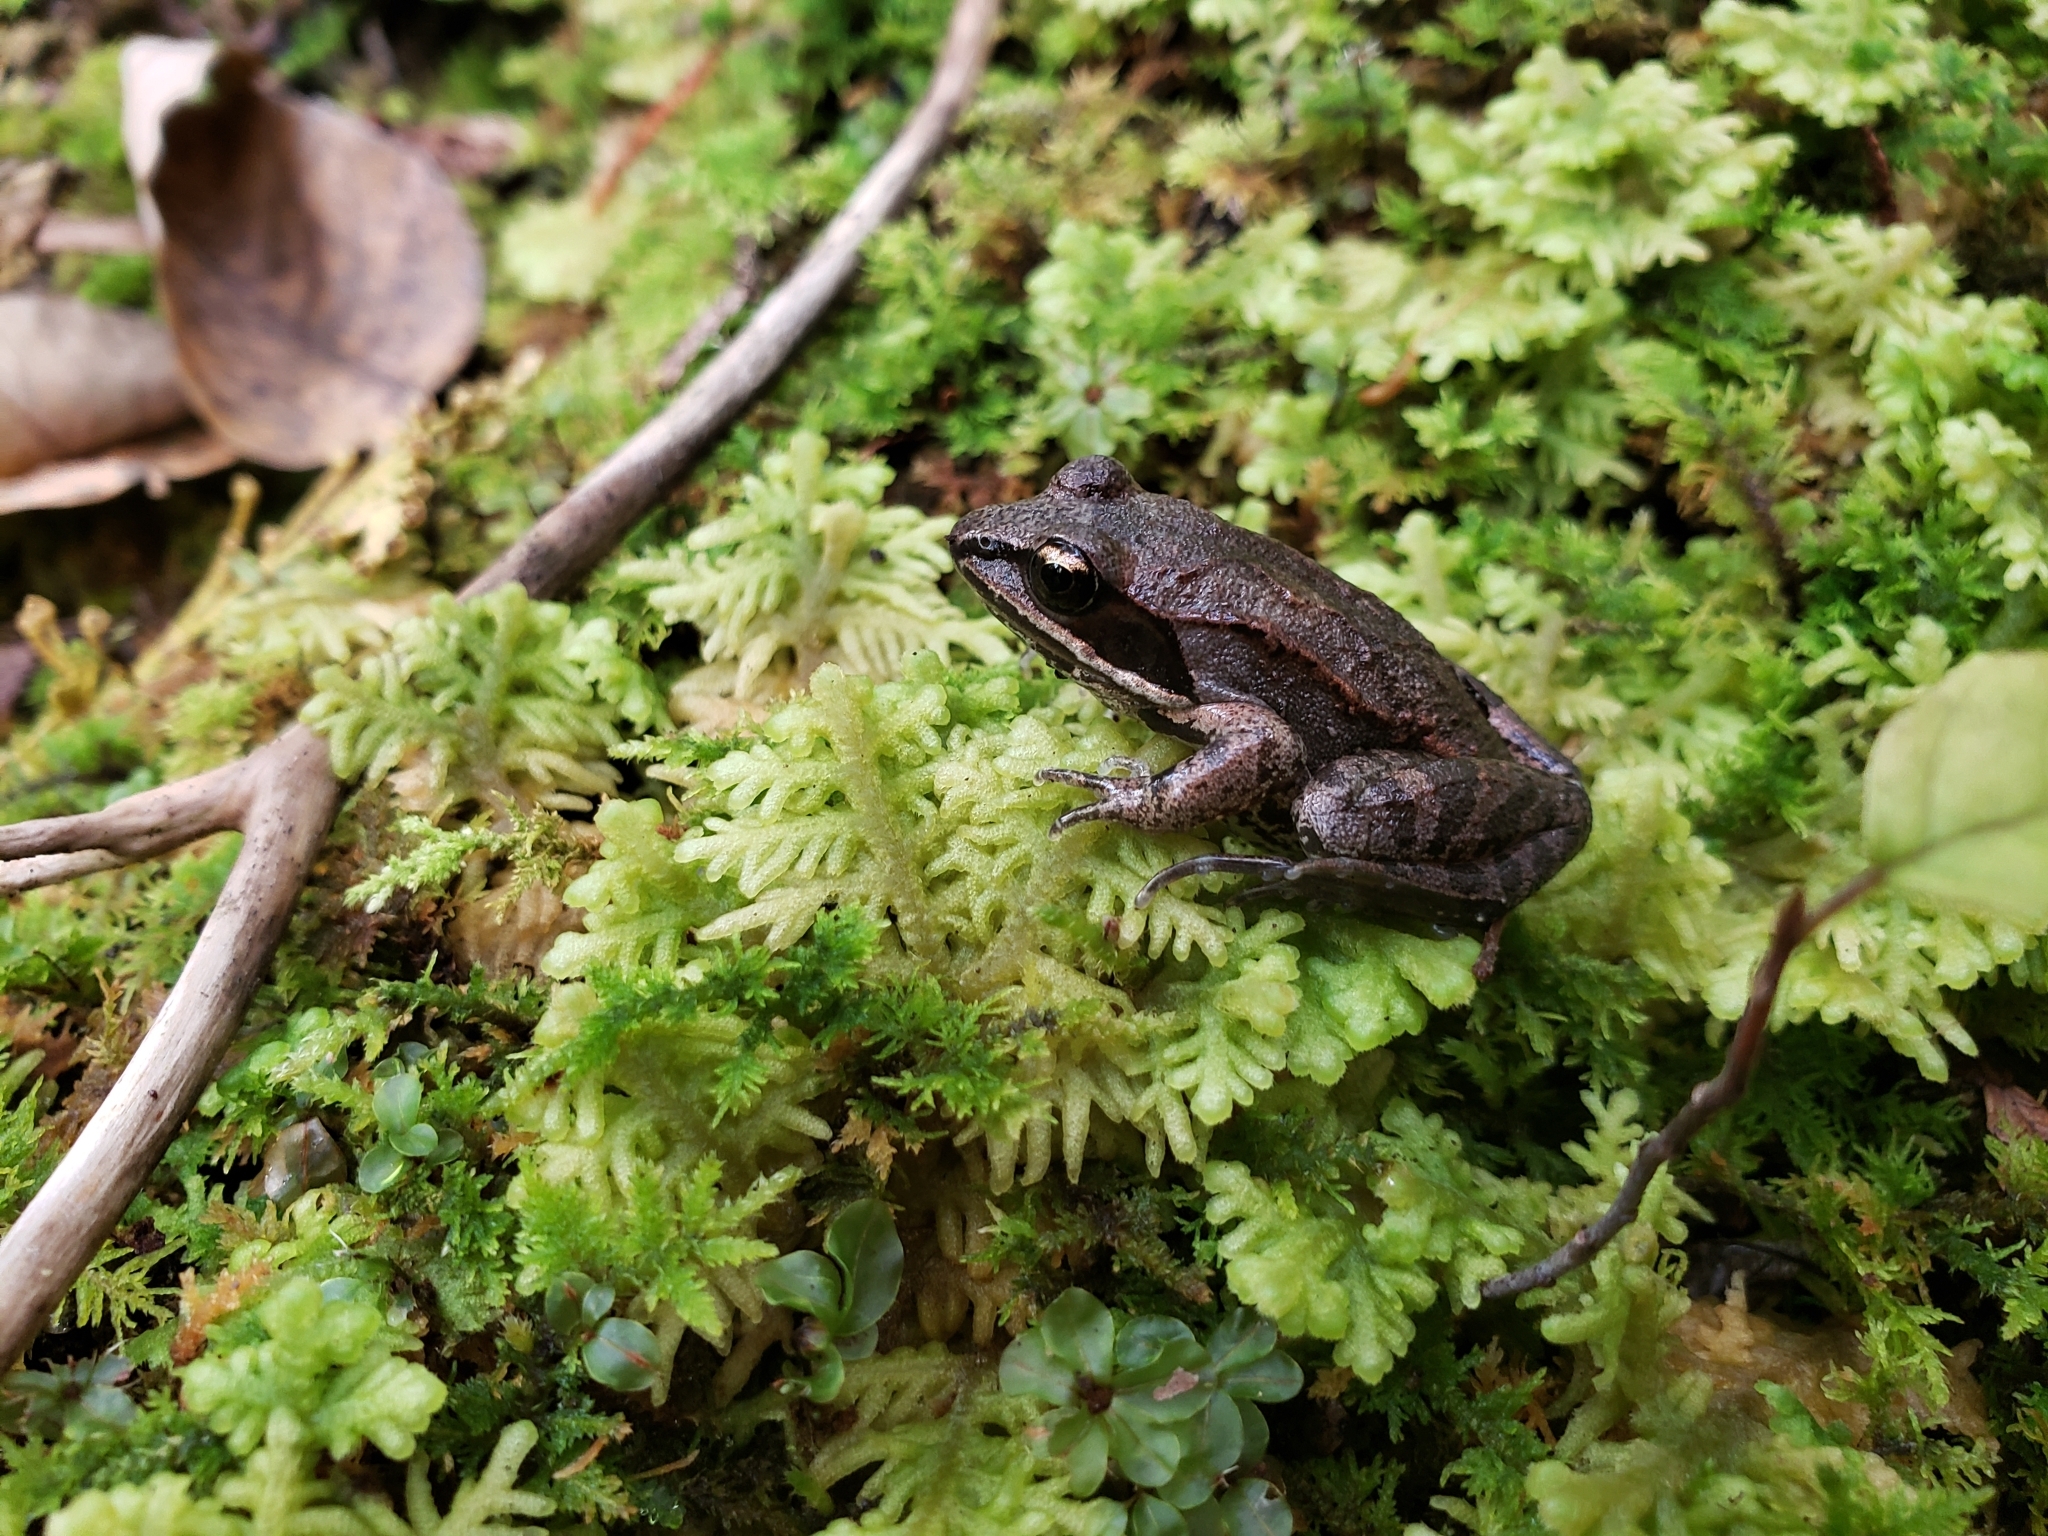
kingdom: Animalia
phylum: Chordata
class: Amphibia
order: Anura
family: Ranidae
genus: Lithobates
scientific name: Lithobates sylvaticus
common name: Wood frog
